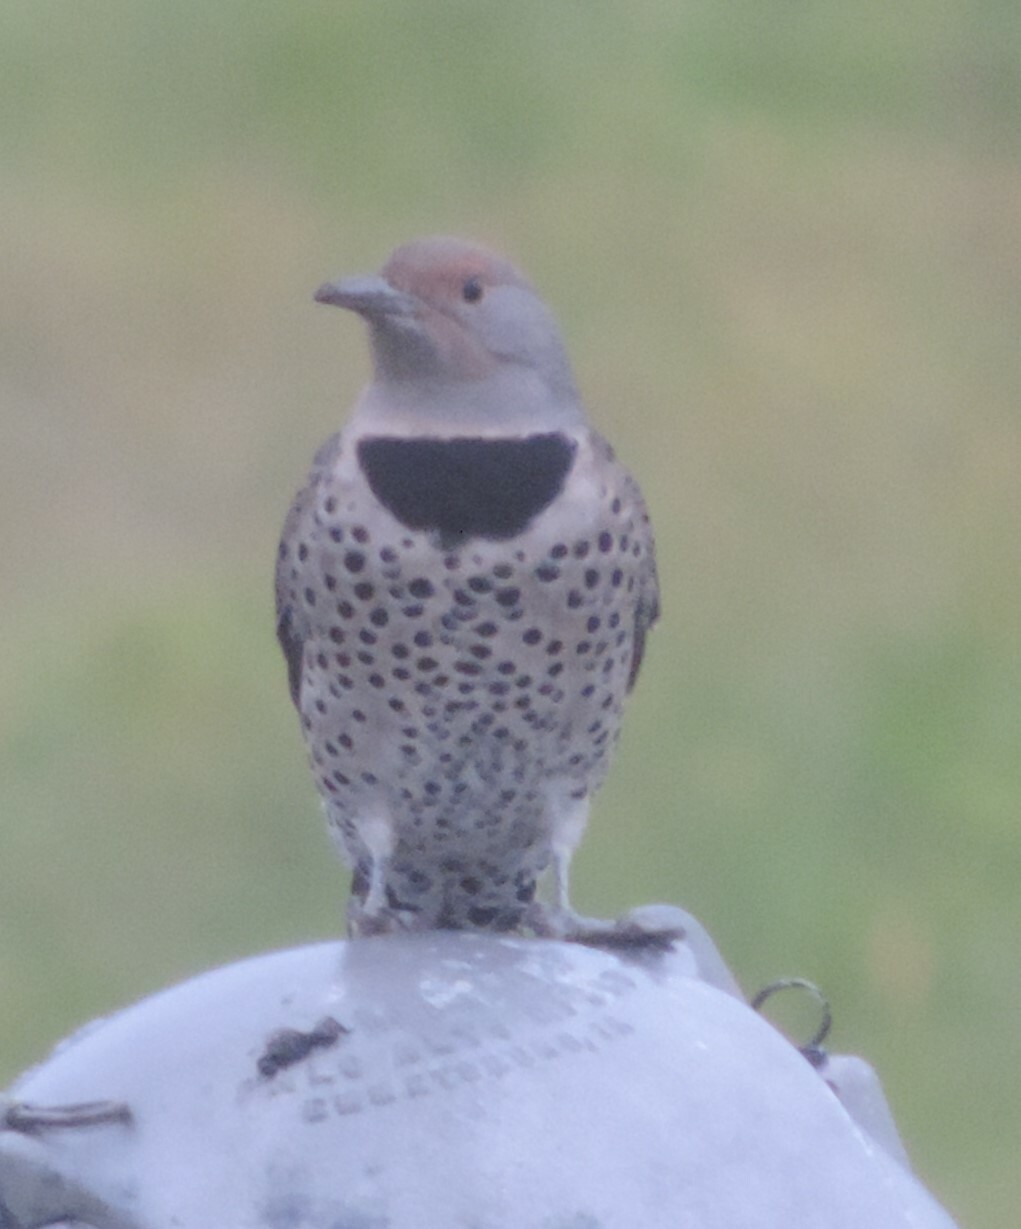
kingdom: Animalia
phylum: Chordata
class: Aves
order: Piciformes
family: Picidae
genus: Colaptes
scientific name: Colaptes auratus
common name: Northern flicker
